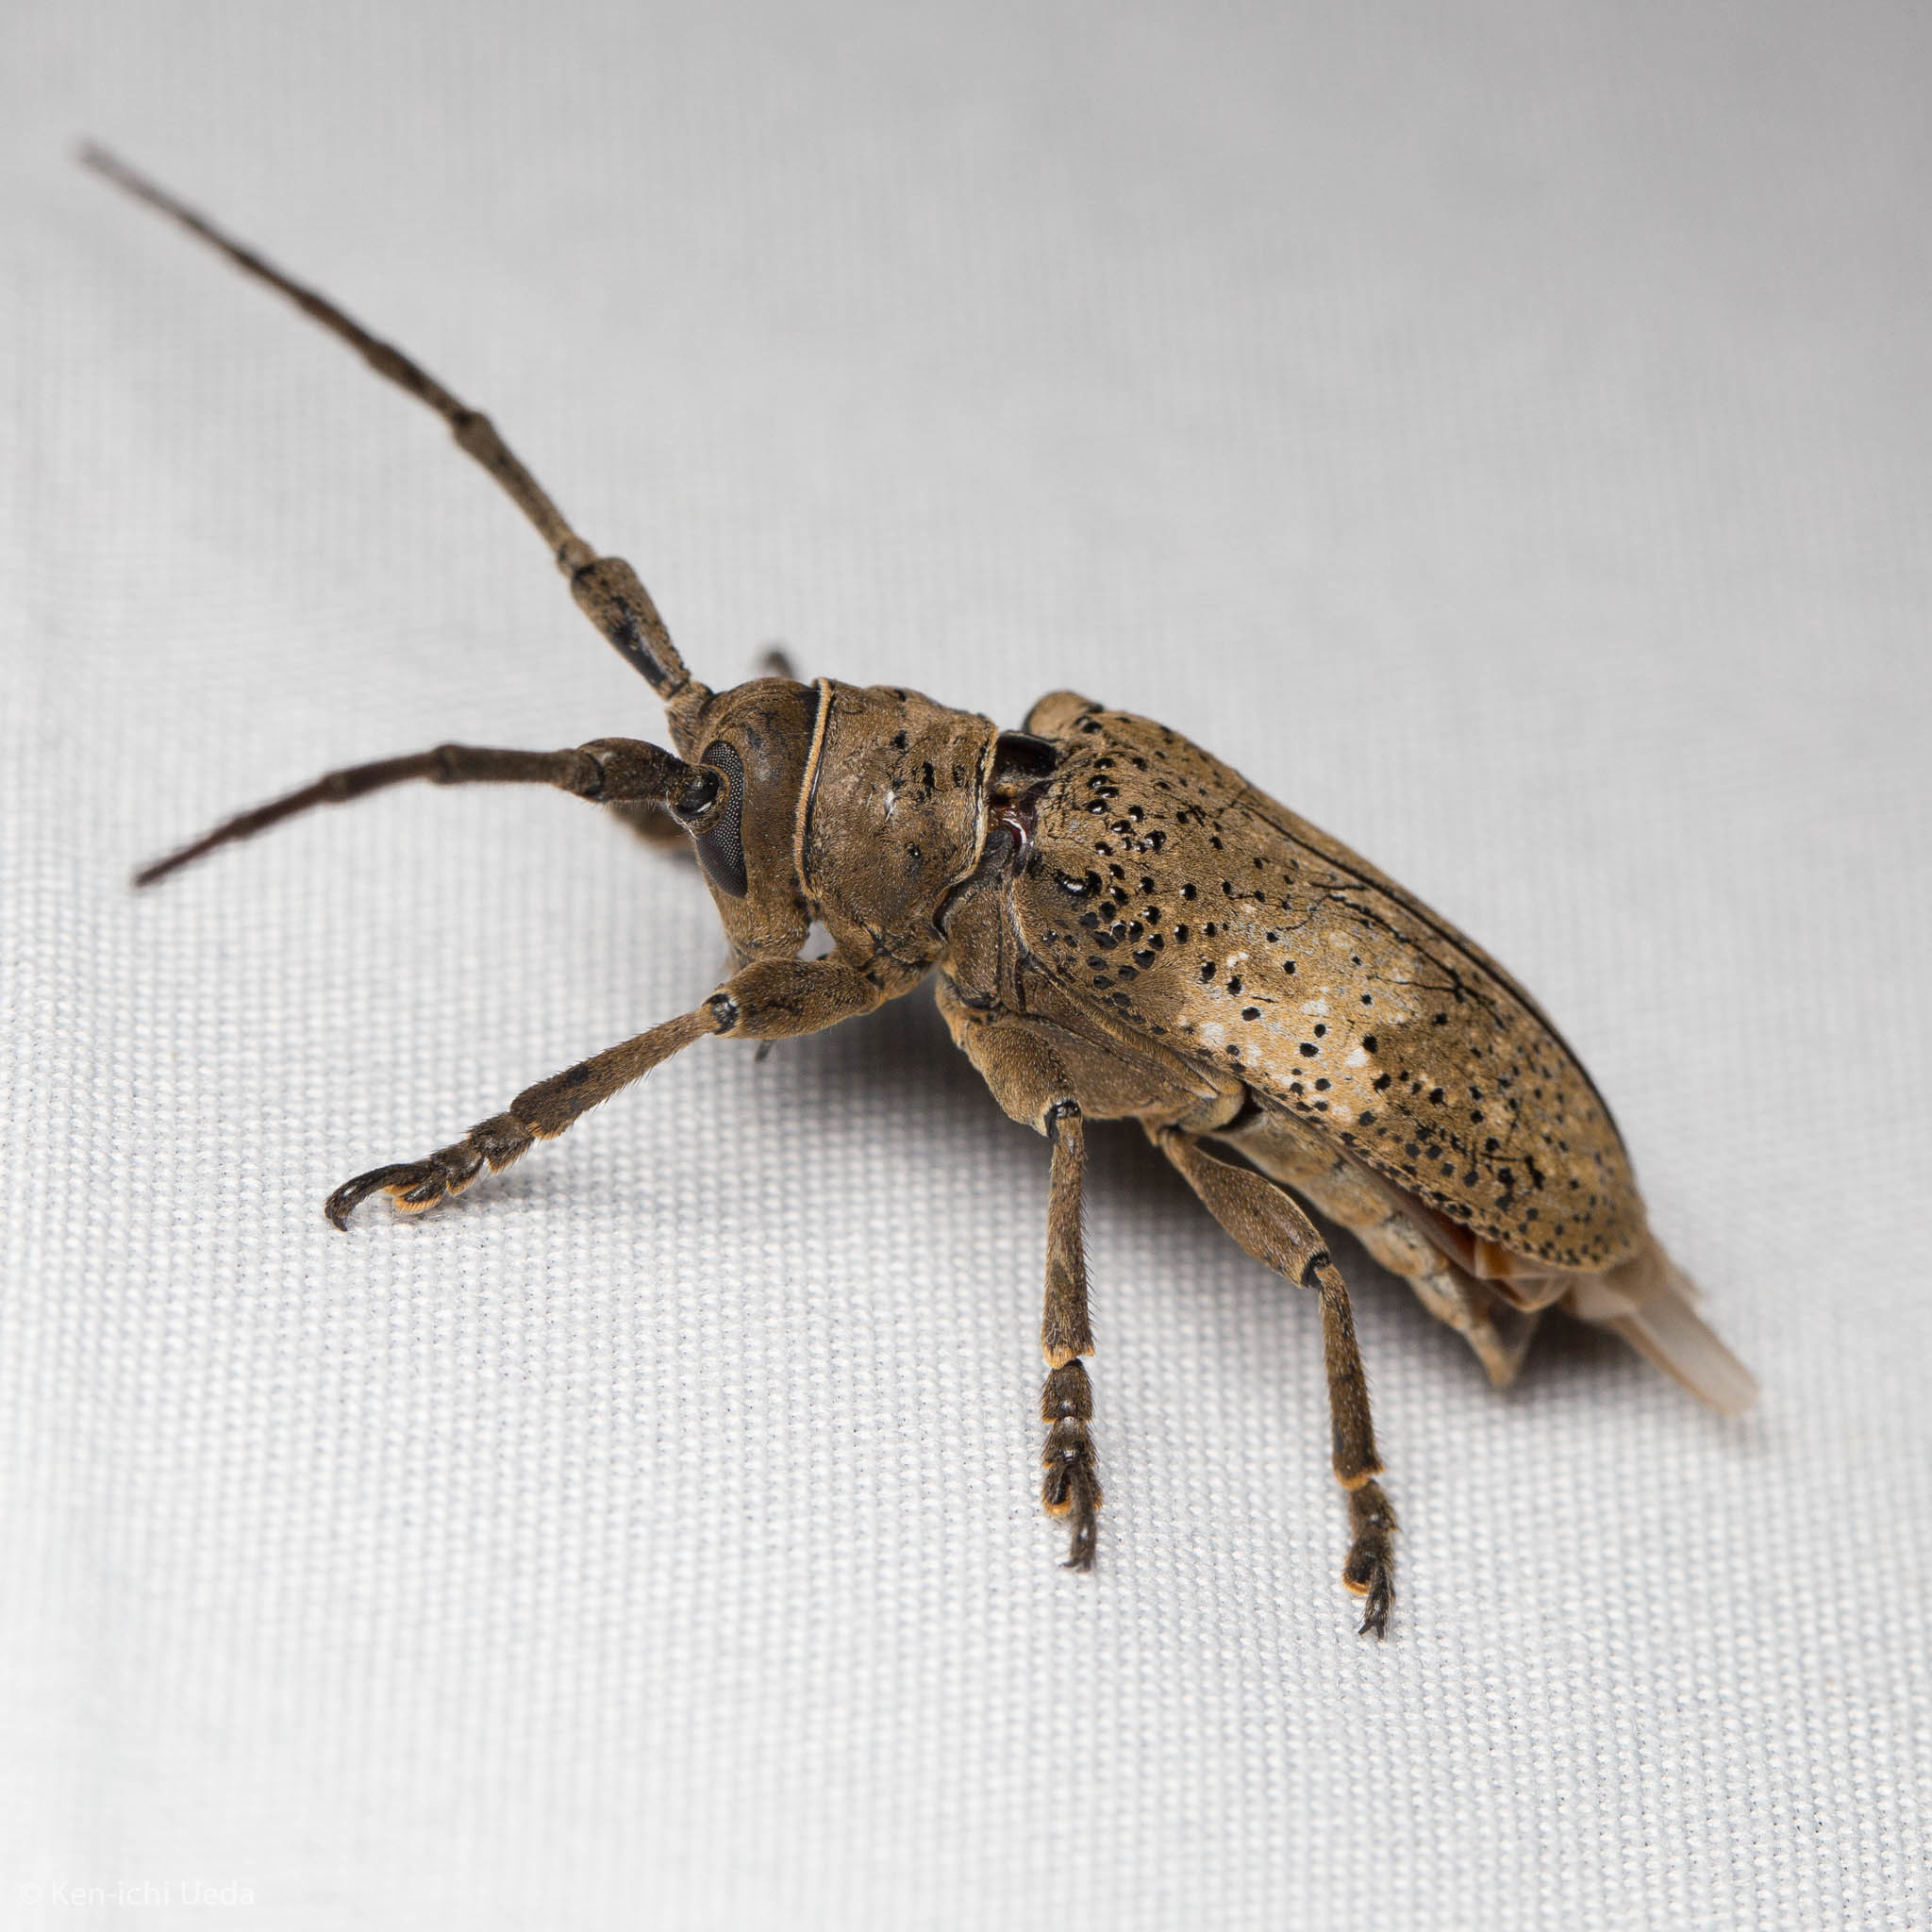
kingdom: Animalia
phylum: Arthropoda
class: Insecta
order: Coleoptera
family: Cerambycidae
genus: Oncideres
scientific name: Oncideres pustulata
